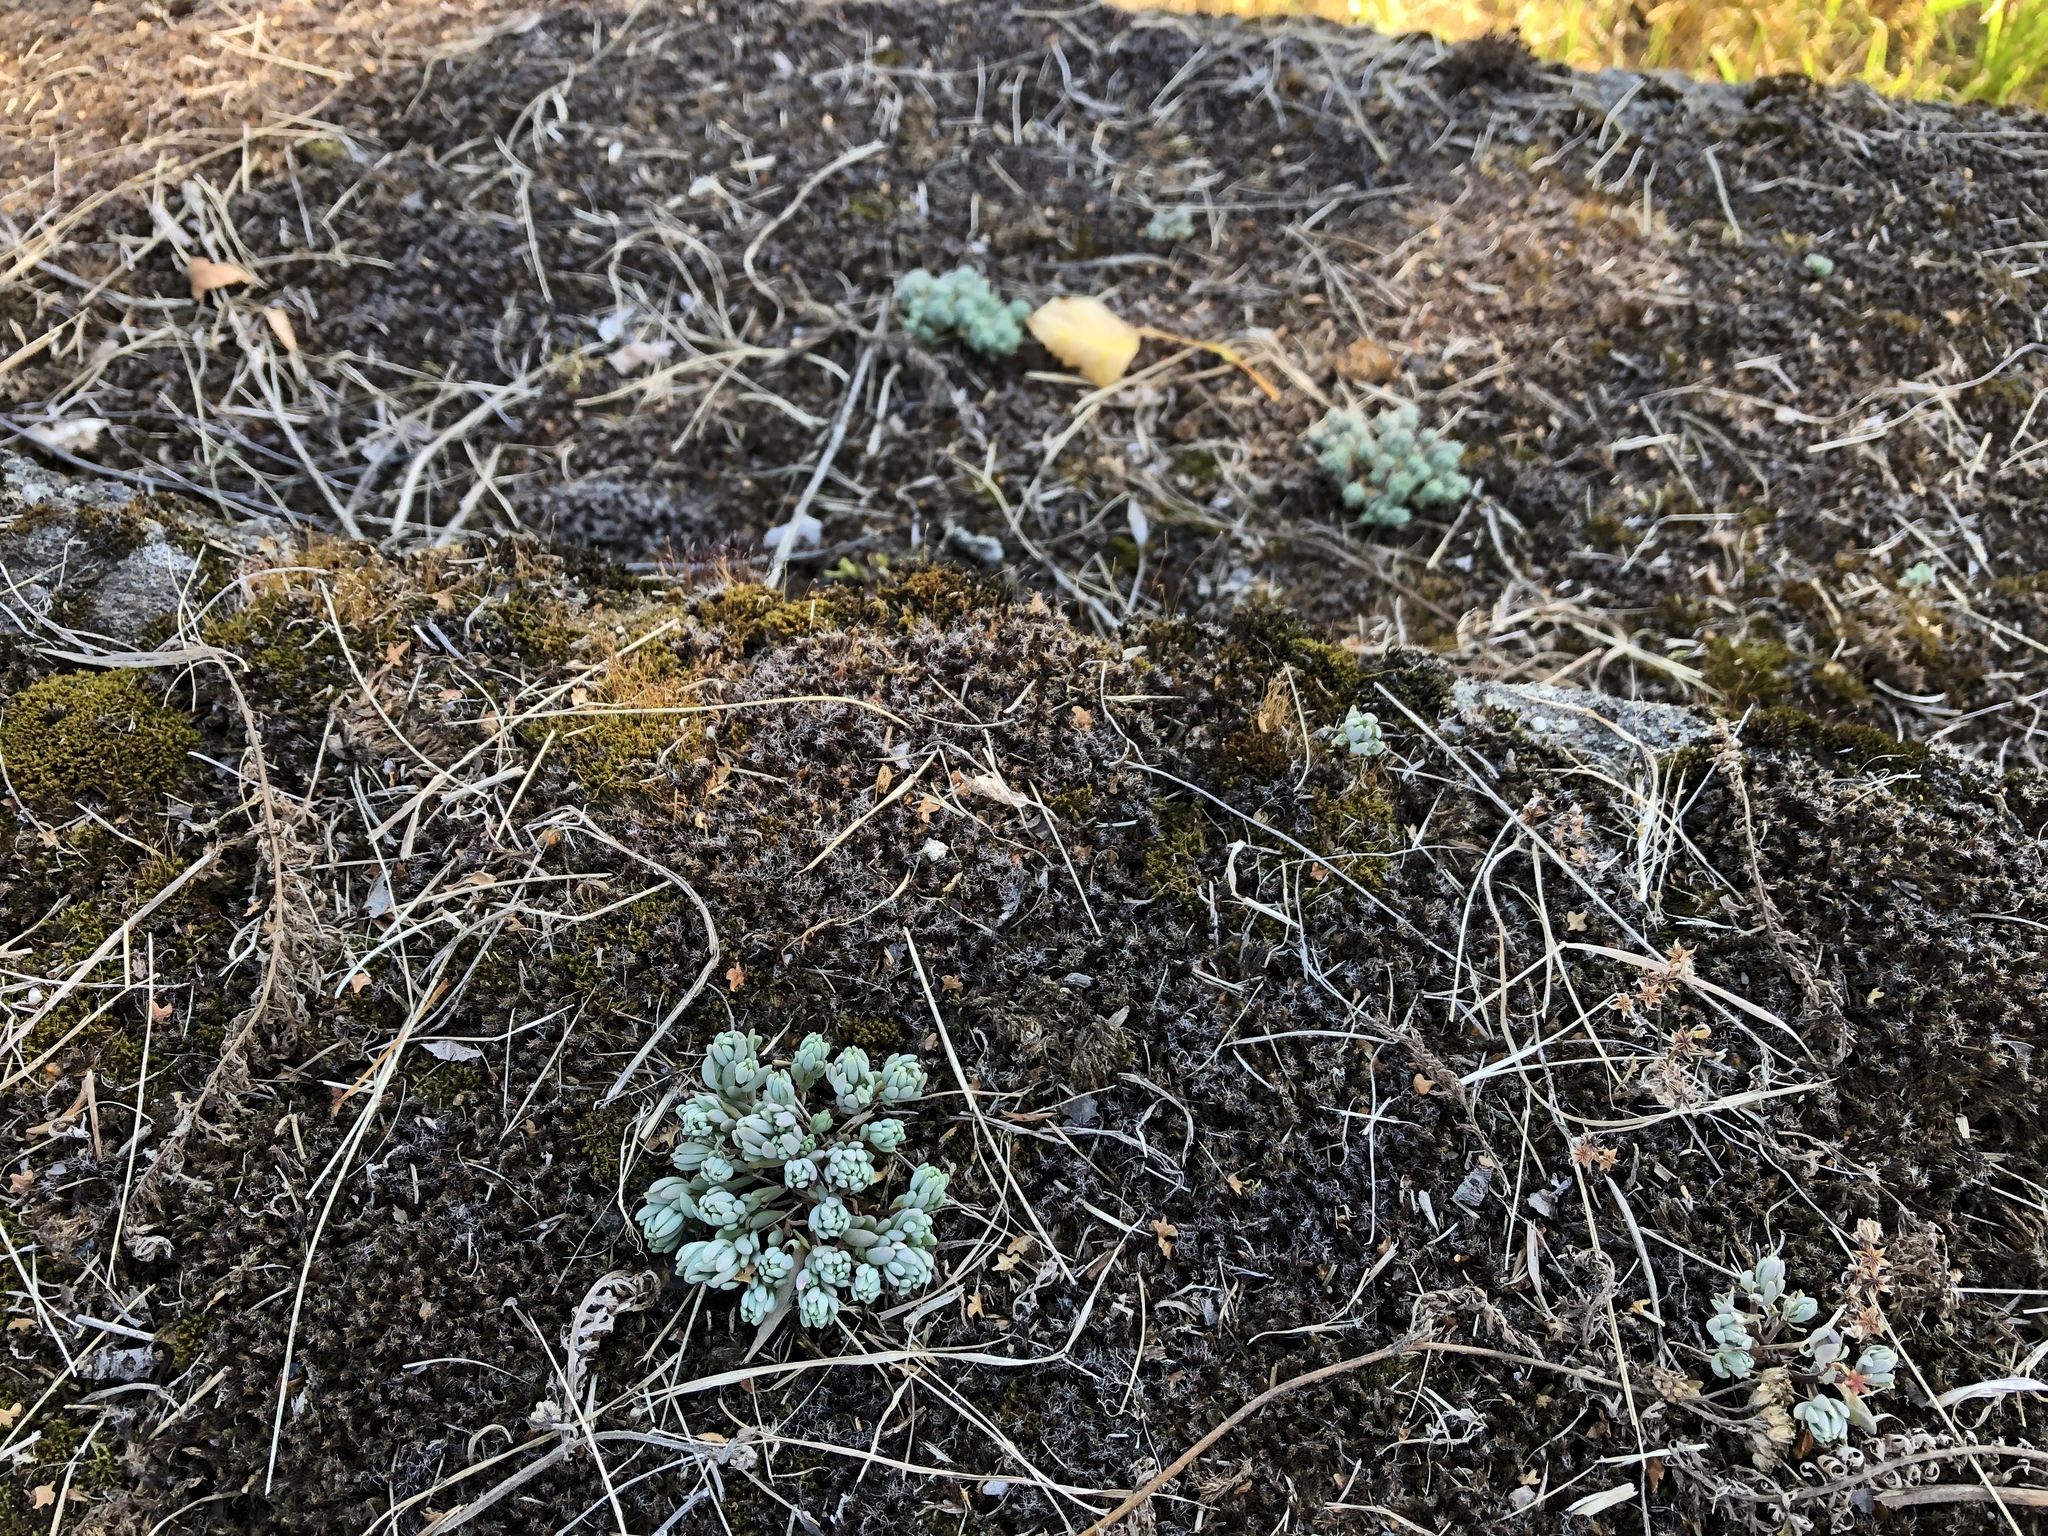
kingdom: Plantae
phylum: Tracheophyta
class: Magnoliopsida
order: Saxifragales
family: Crassulaceae
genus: Sedum
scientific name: Sedum hispanicum
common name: Spanish stonecrop
